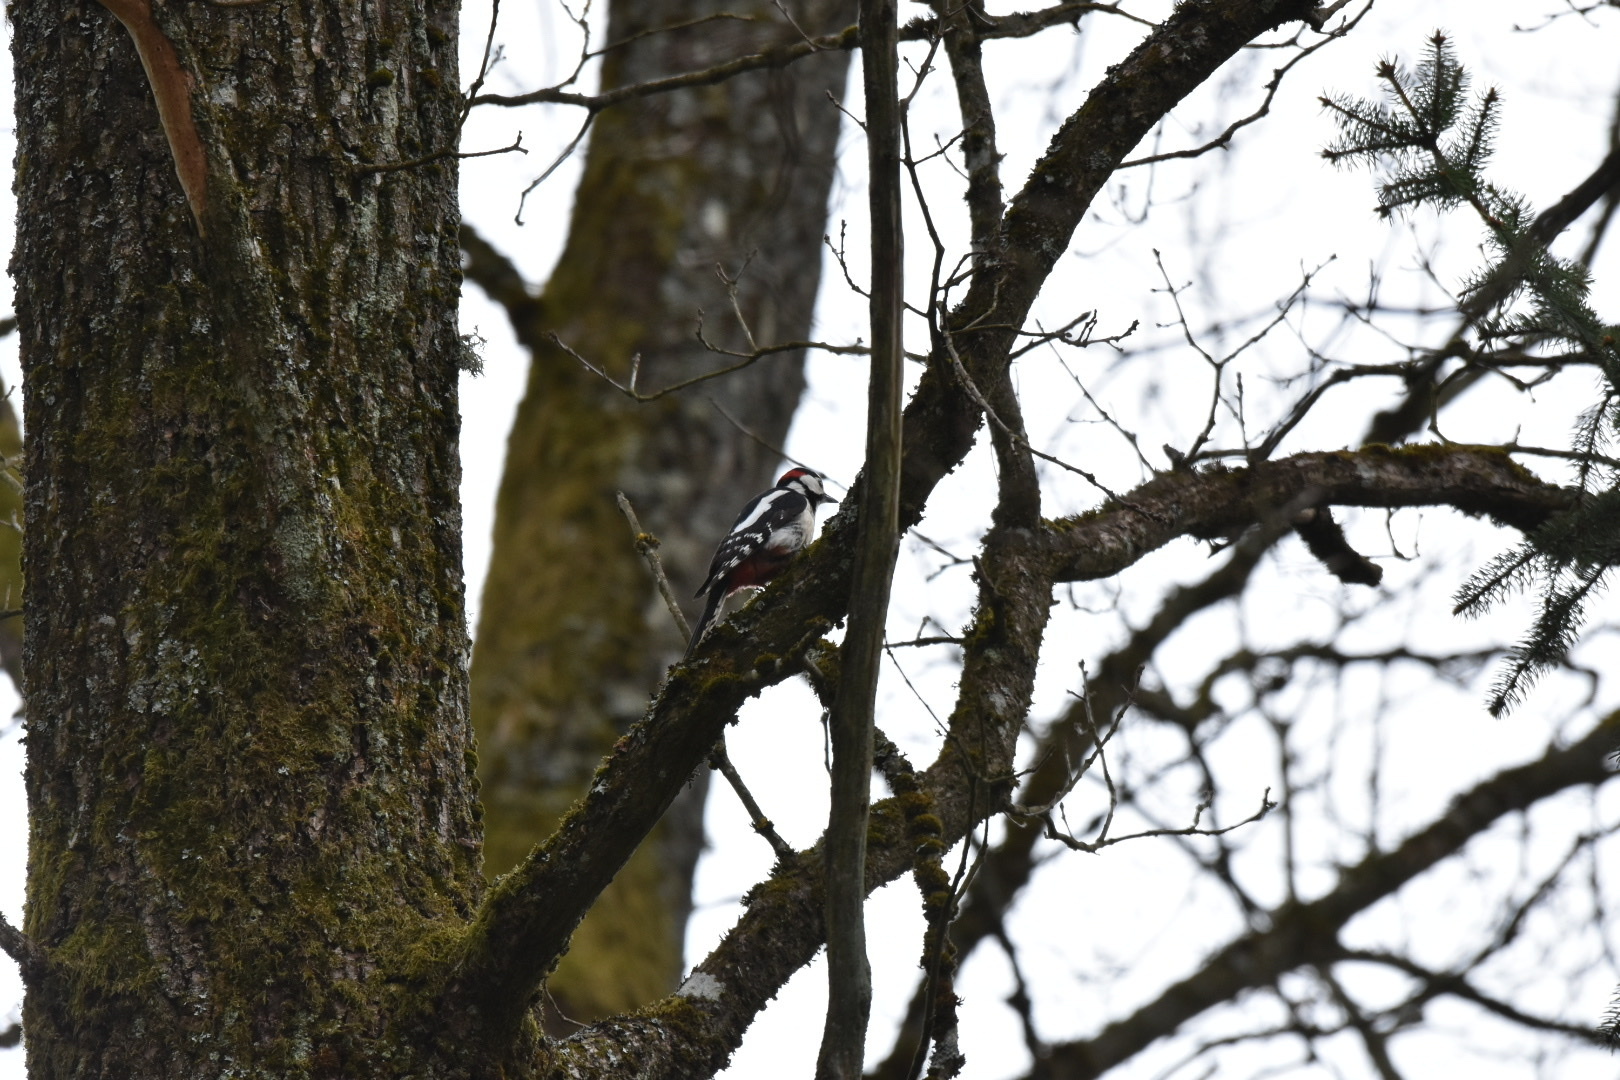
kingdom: Animalia
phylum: Chordata
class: Aves
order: Piciformes
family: Picidae
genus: Dendrocopos
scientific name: Dendrocopos major
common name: Great spotted woodpecker
